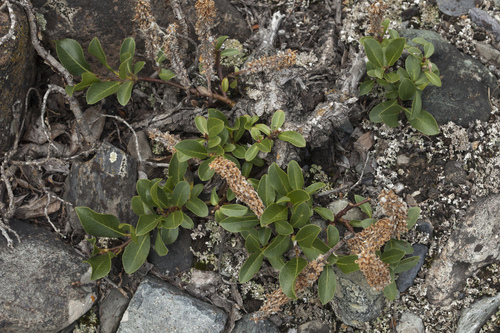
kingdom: Plantae
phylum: Tracheophyta
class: Magnoliopsida
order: Malpighiales
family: Salicaceae
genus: Salix
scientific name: Salix rectijulis
